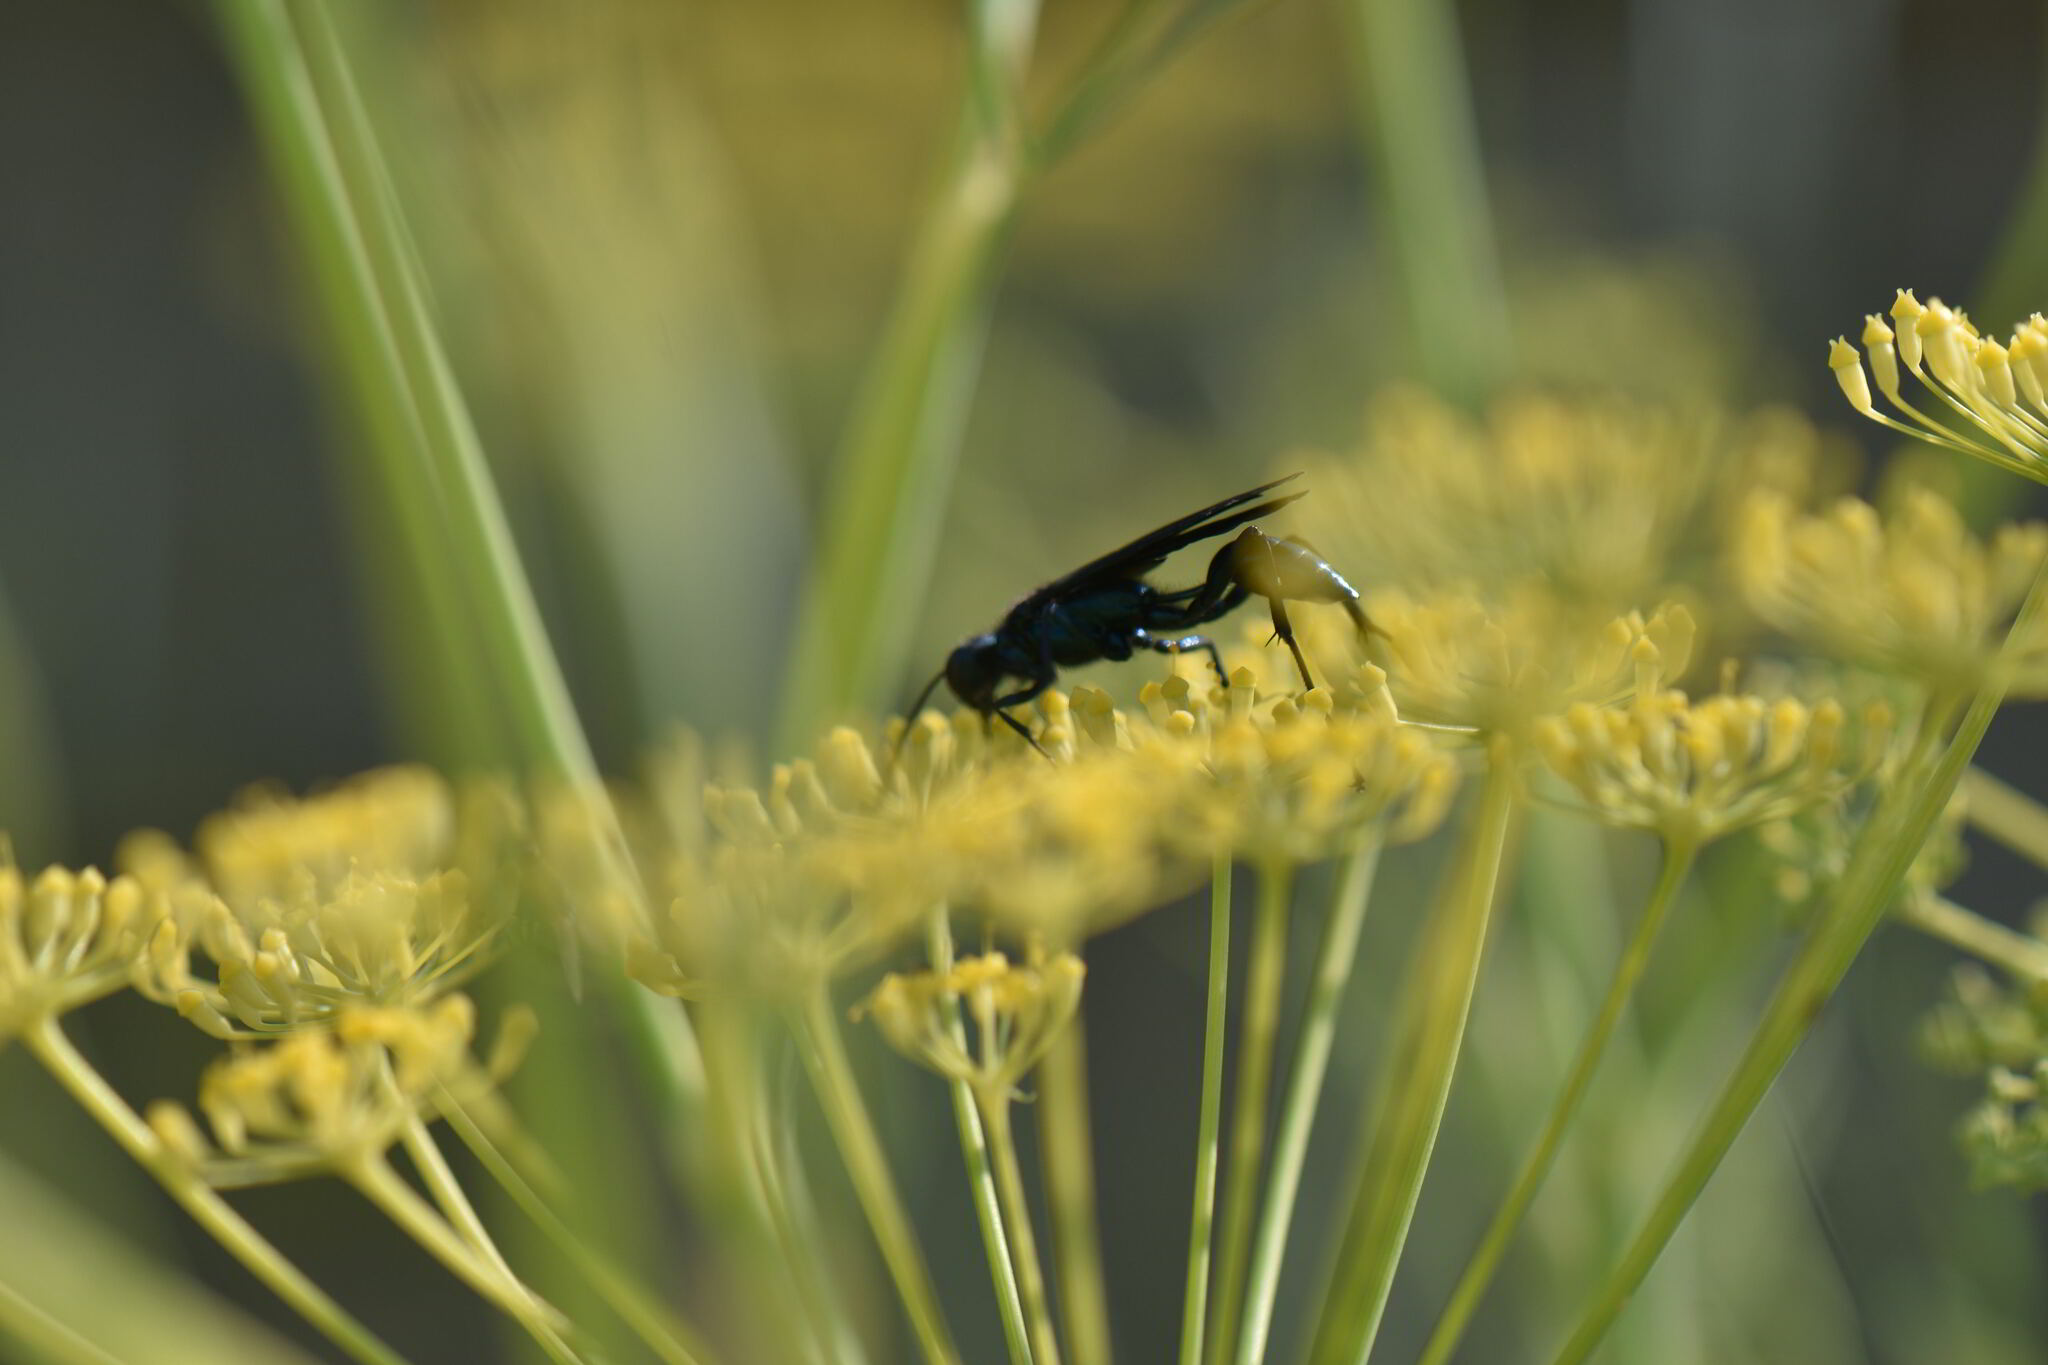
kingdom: Animalia
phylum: Arthropoda
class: Insecta
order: Hymenoptera
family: Sphecidae
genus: Chalybion
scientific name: Chalybion californicum
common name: Mud dauber
